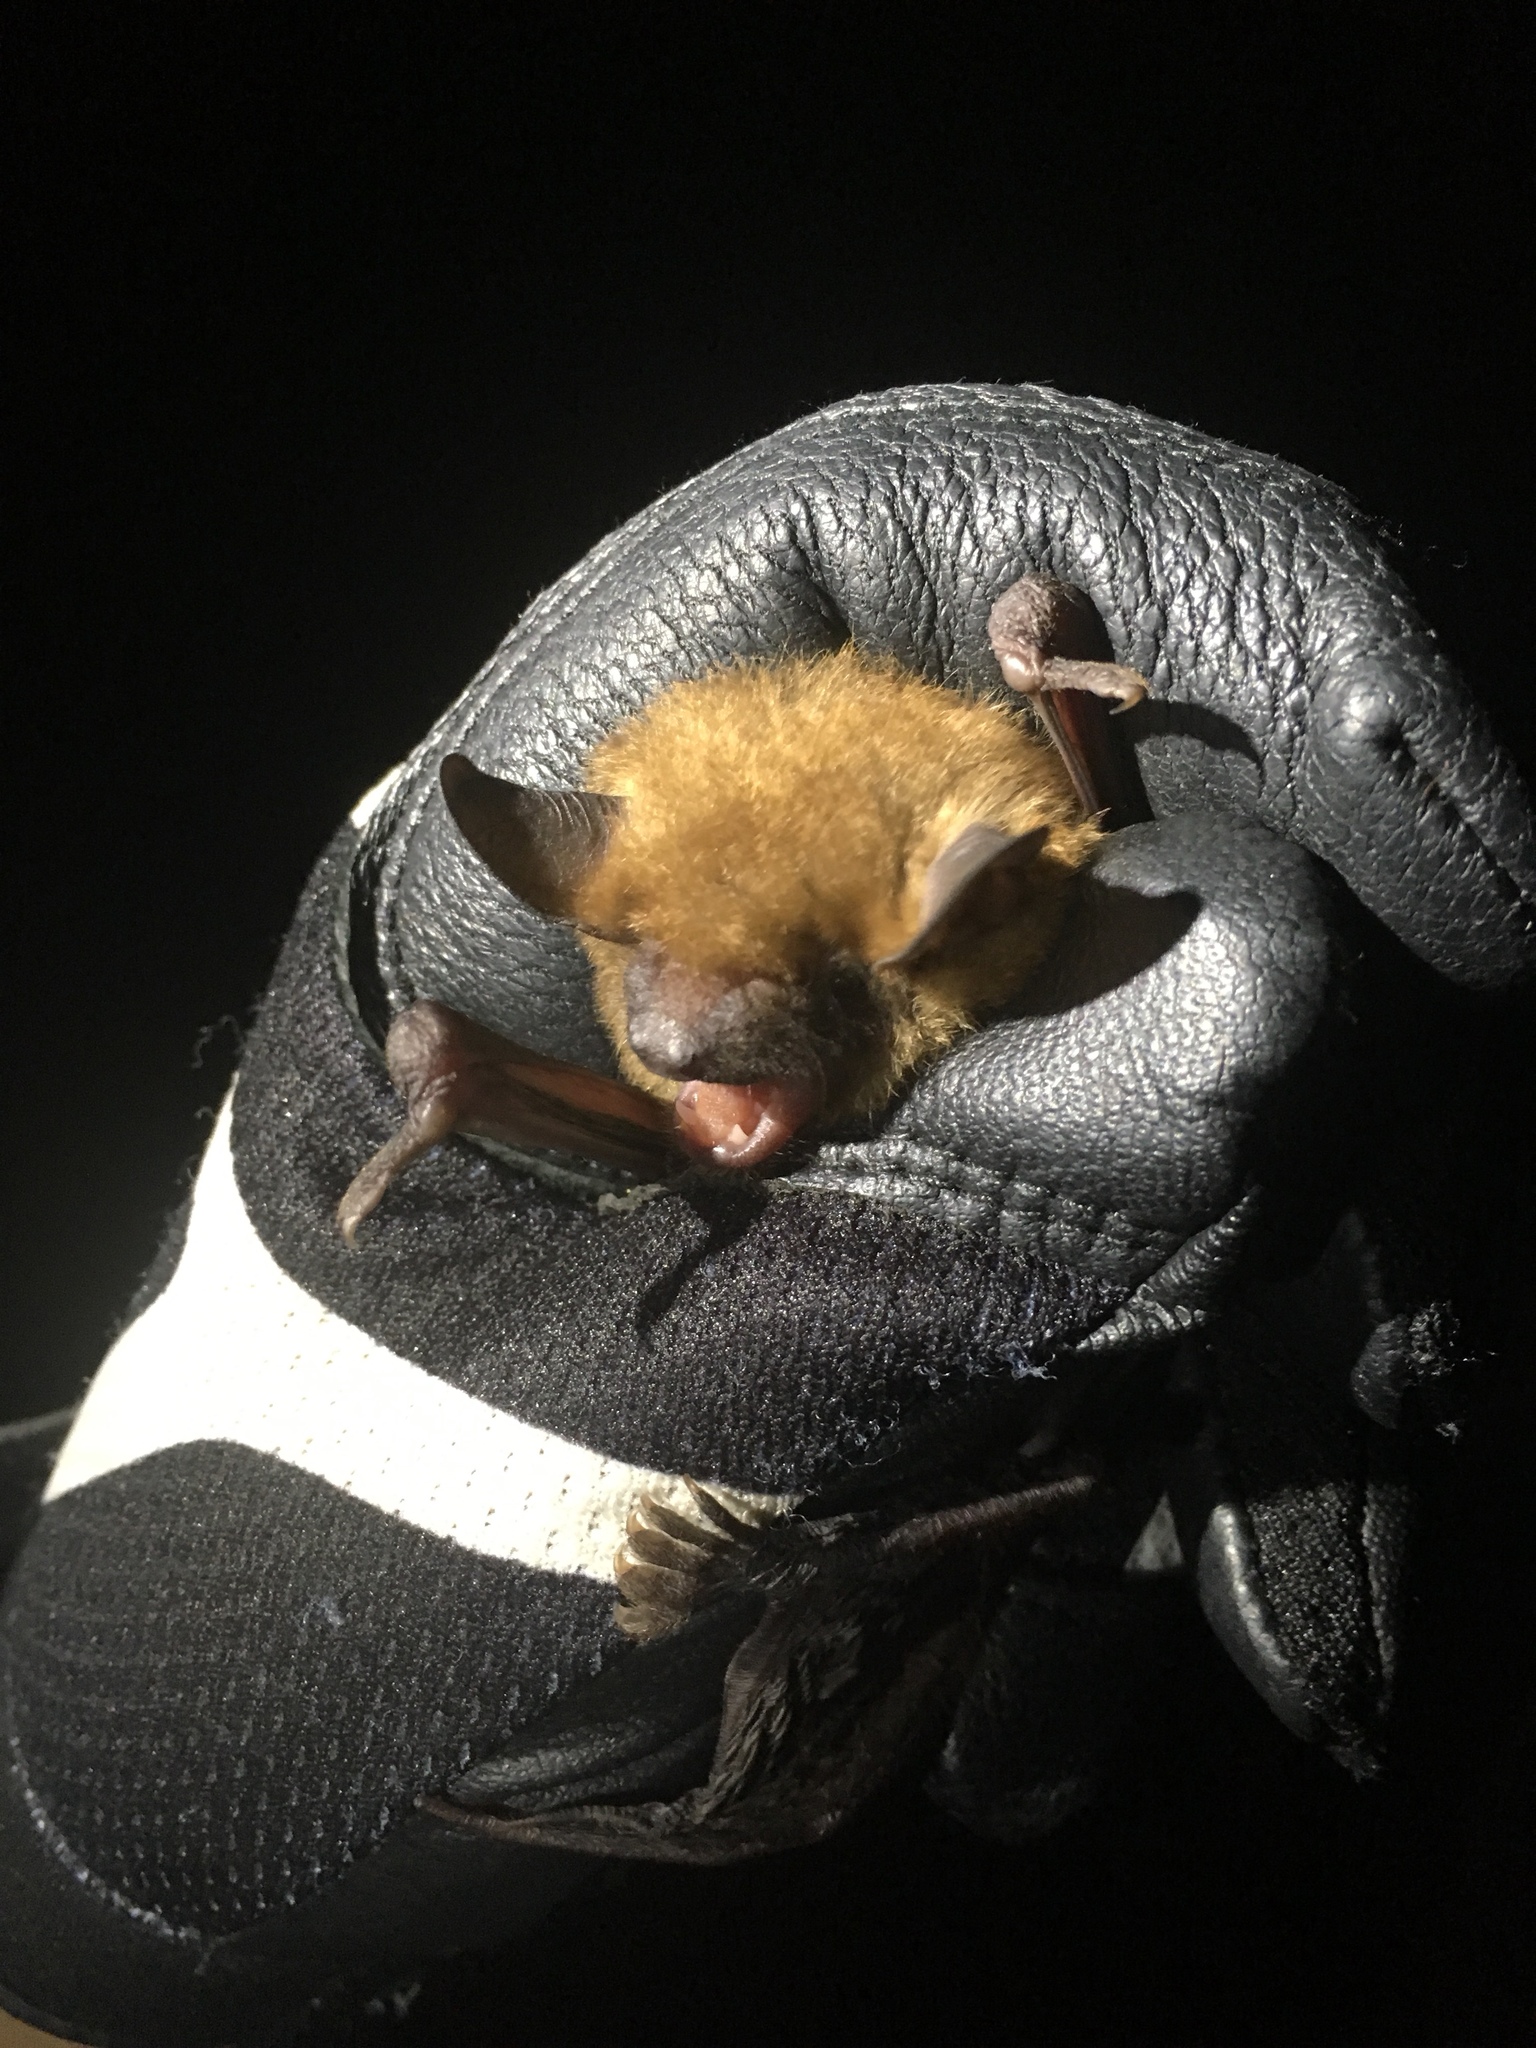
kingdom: Animalia
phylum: Chordata
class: Mammalia
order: Chiroptera
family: Vespertilionidae
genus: Eptesicus
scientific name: Eptesicus fuscus
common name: Big brown bat
